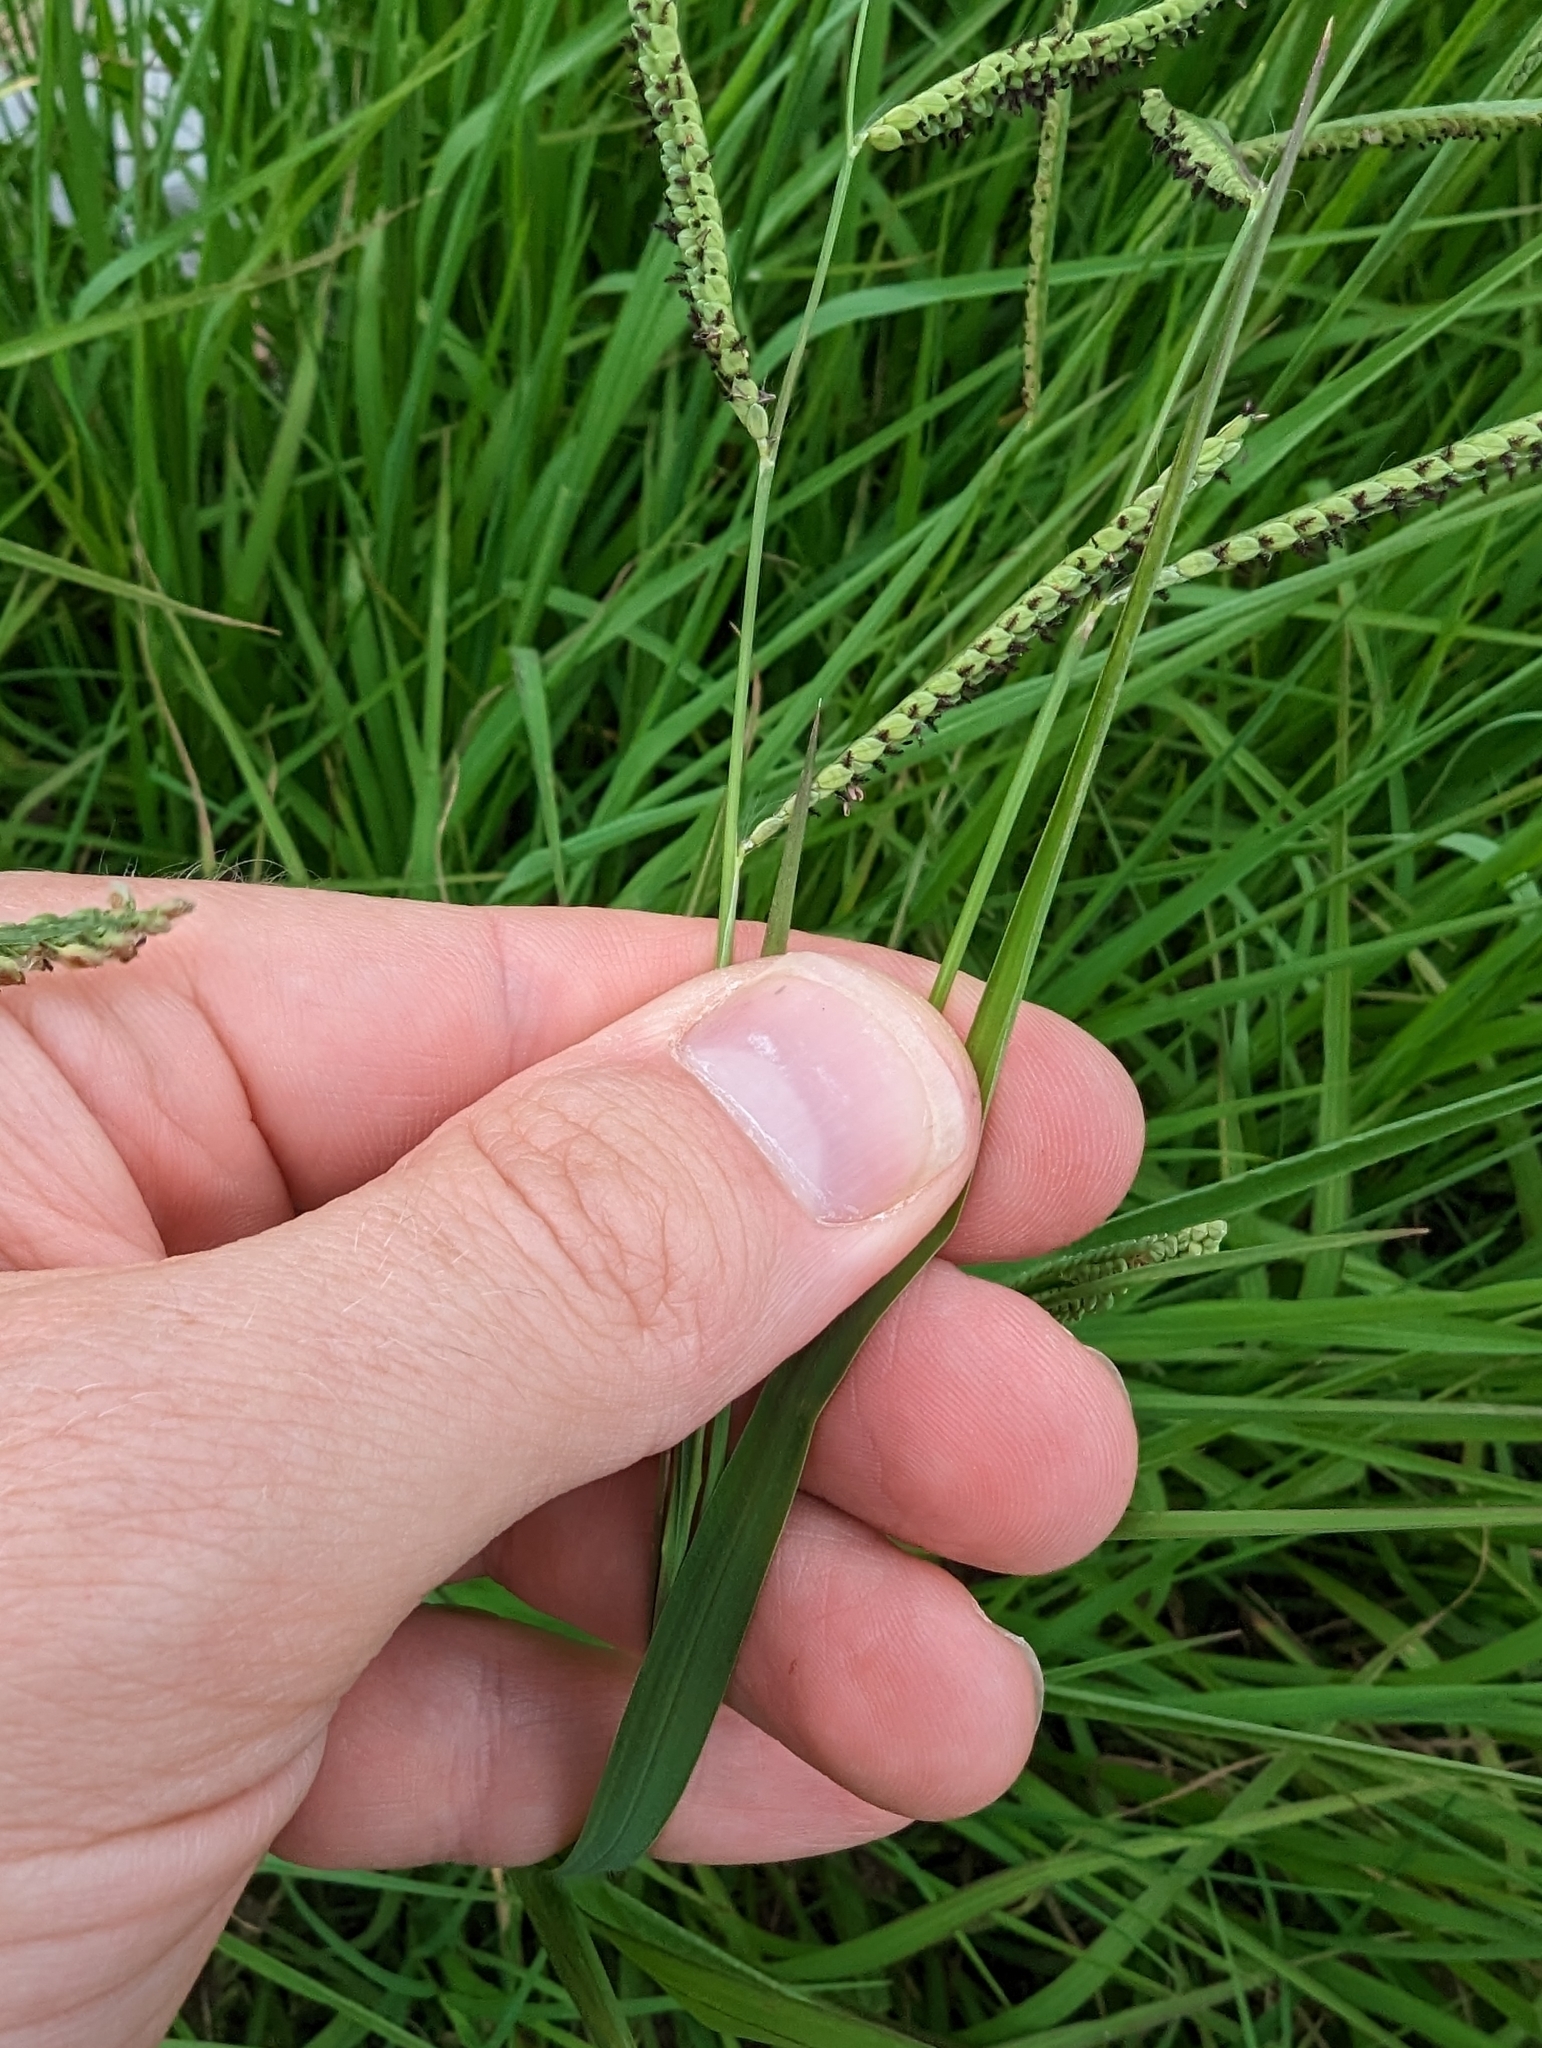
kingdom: Plantae
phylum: Tracheophyta
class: Liliopsida
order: Poales
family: Poaceae
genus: Paspalum
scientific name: Paspalum denticulatum
